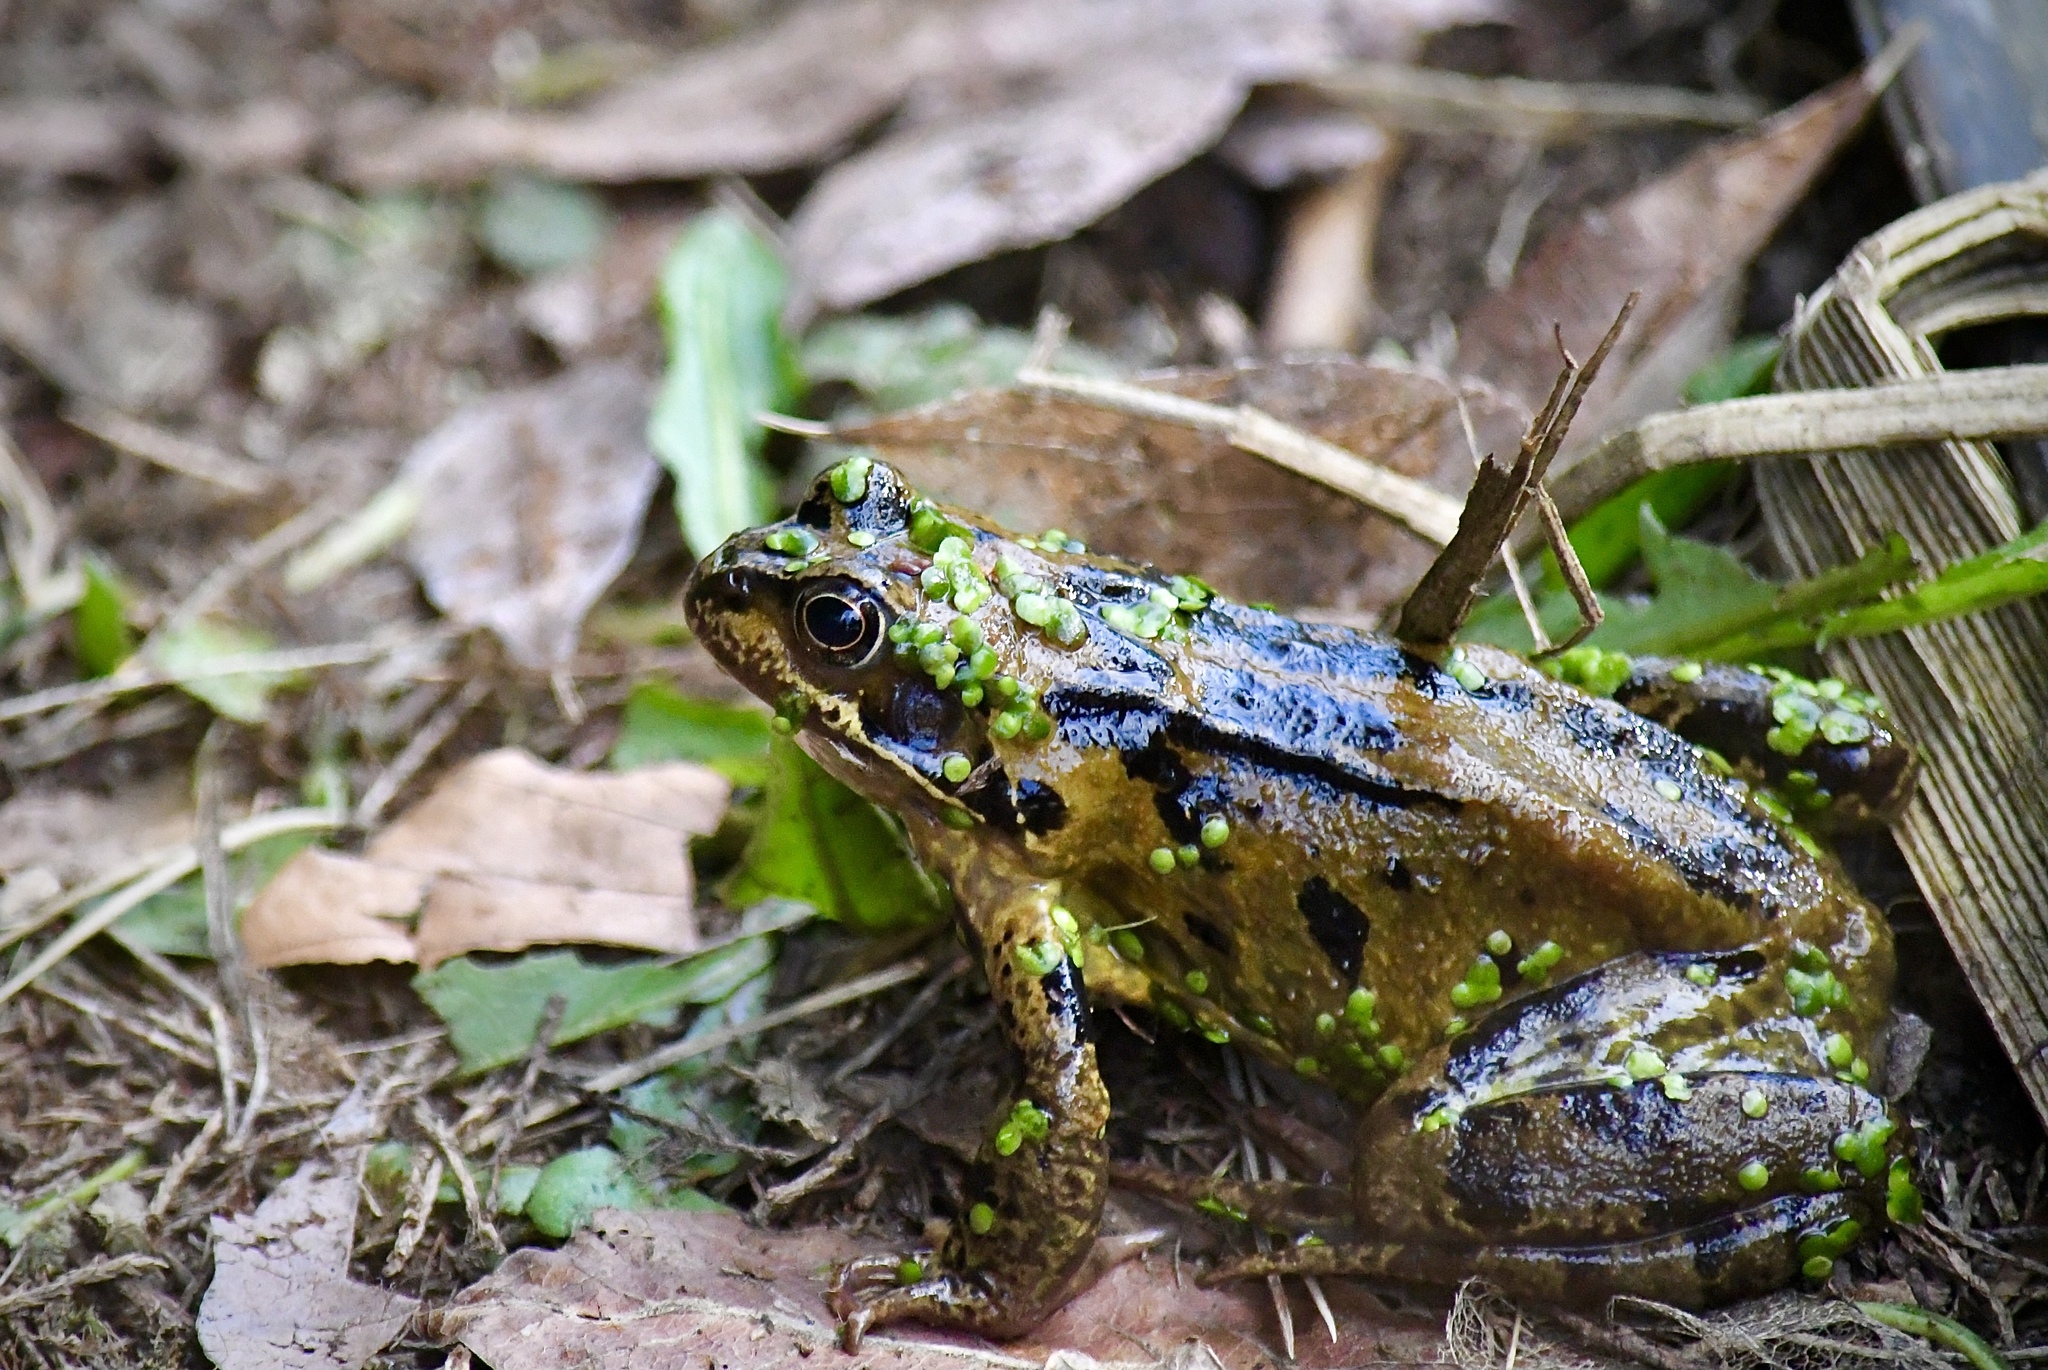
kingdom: Animalia
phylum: Chordata
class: Amphibia
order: Anura
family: Ranidae
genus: Rana
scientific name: Rana temporaria
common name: Common frog
